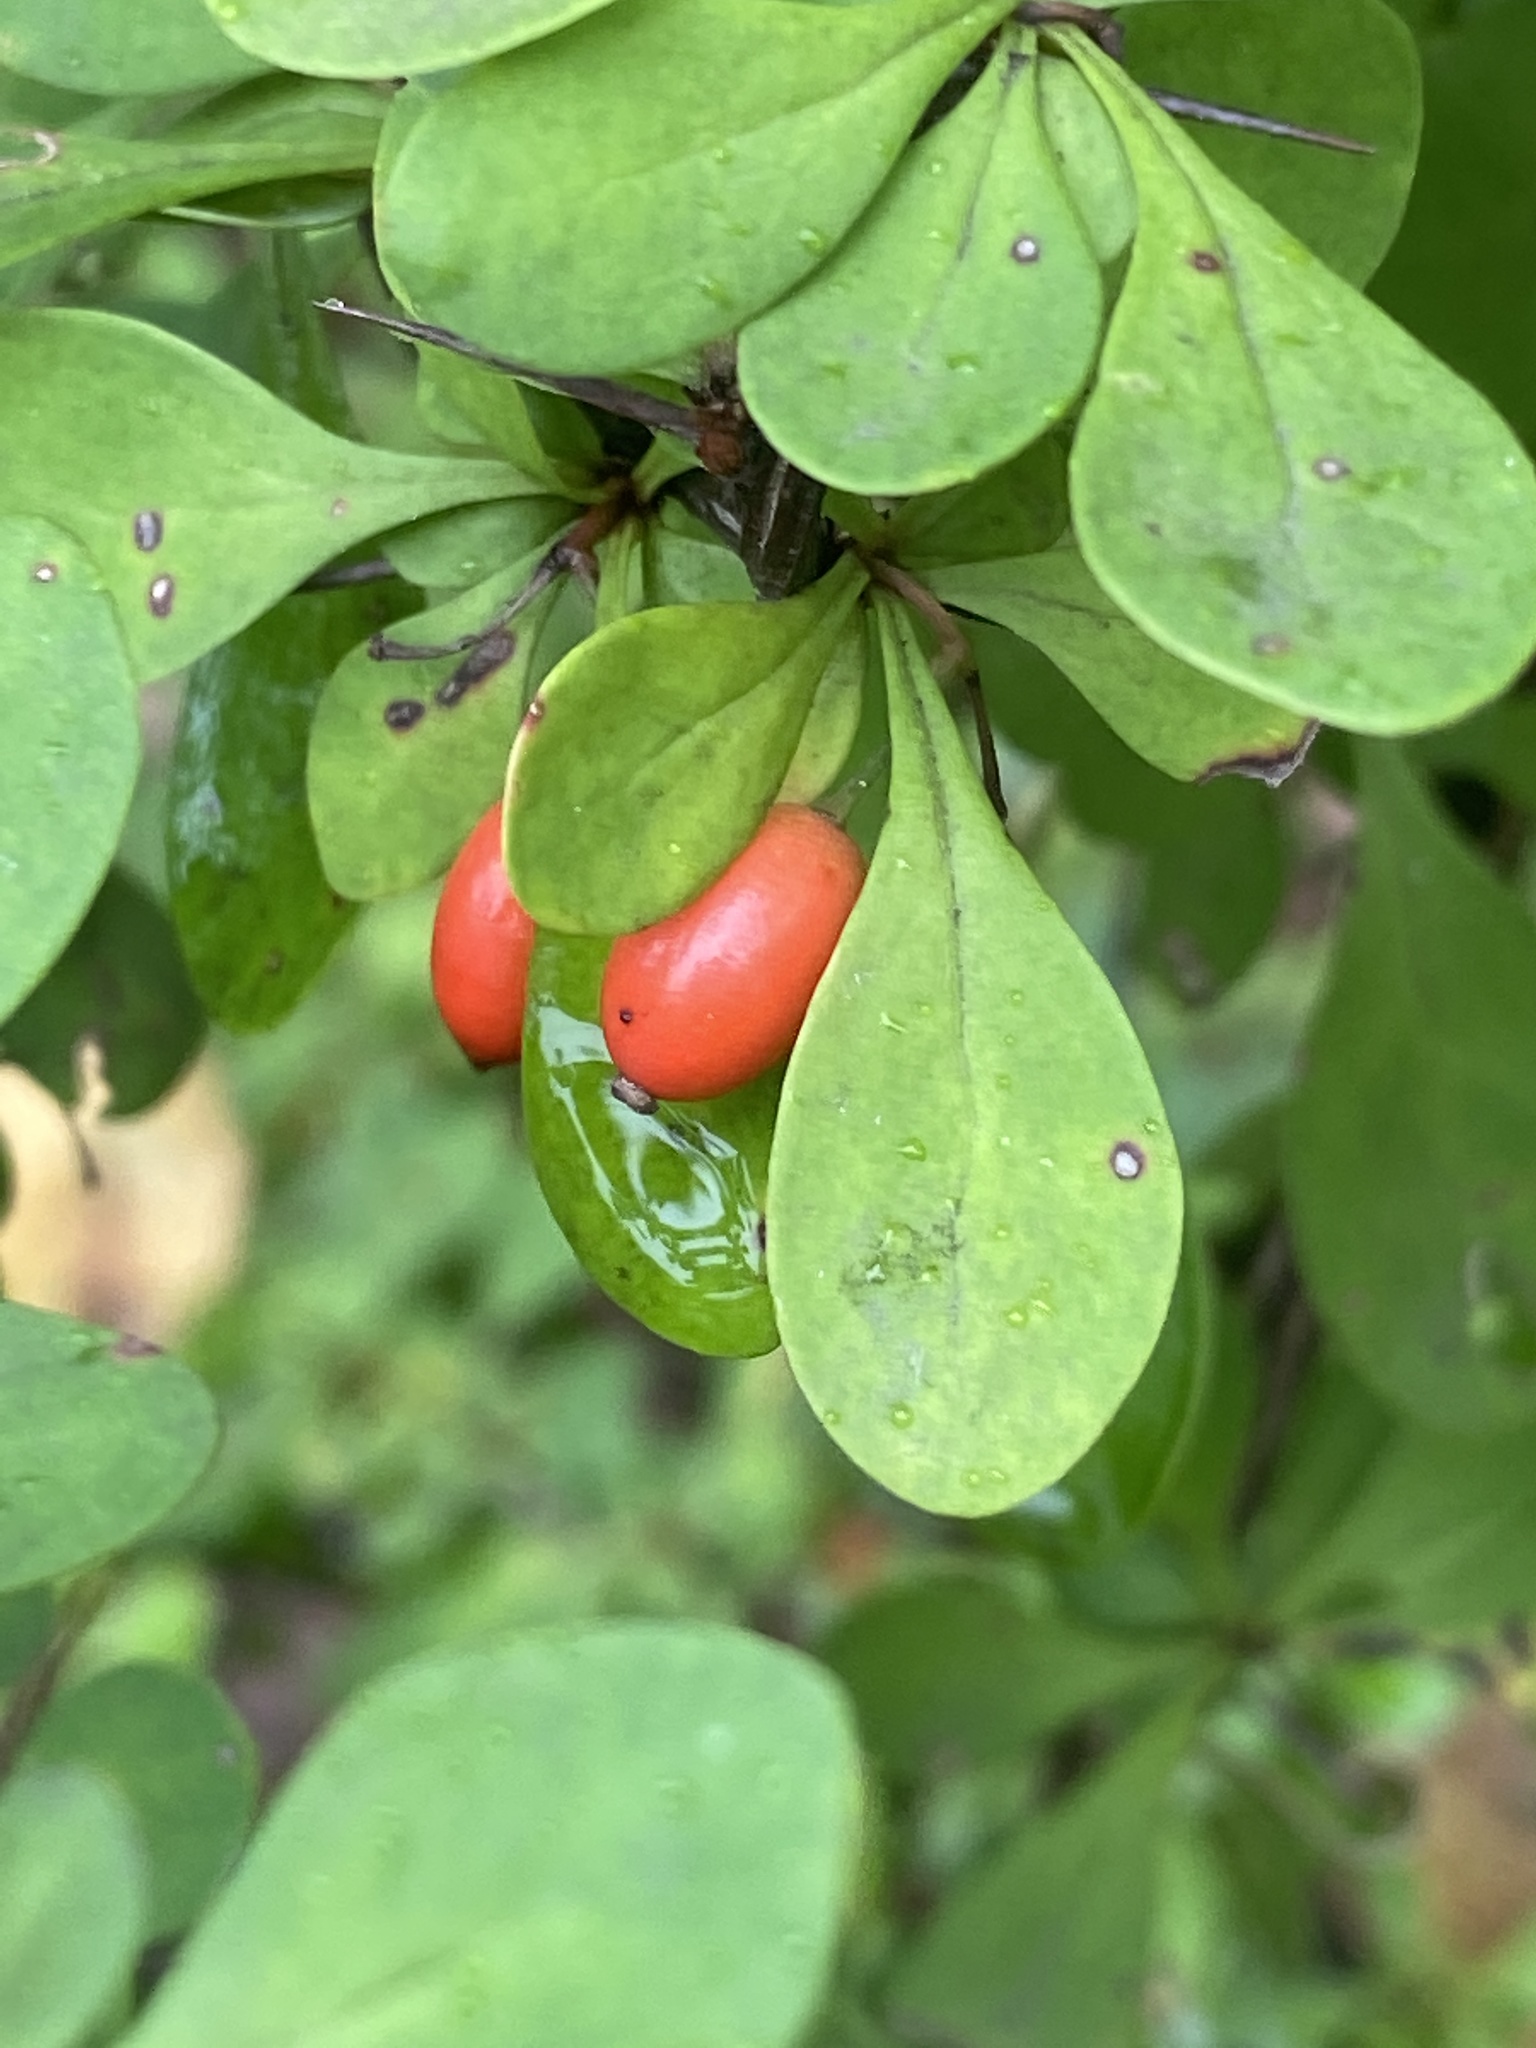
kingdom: Plantae
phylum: Tracheophyta
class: Magnoliopsida
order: Ranunculales
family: Berberidaceae
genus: Berberis
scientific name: Berberis thunbergii
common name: Japanese barberry
